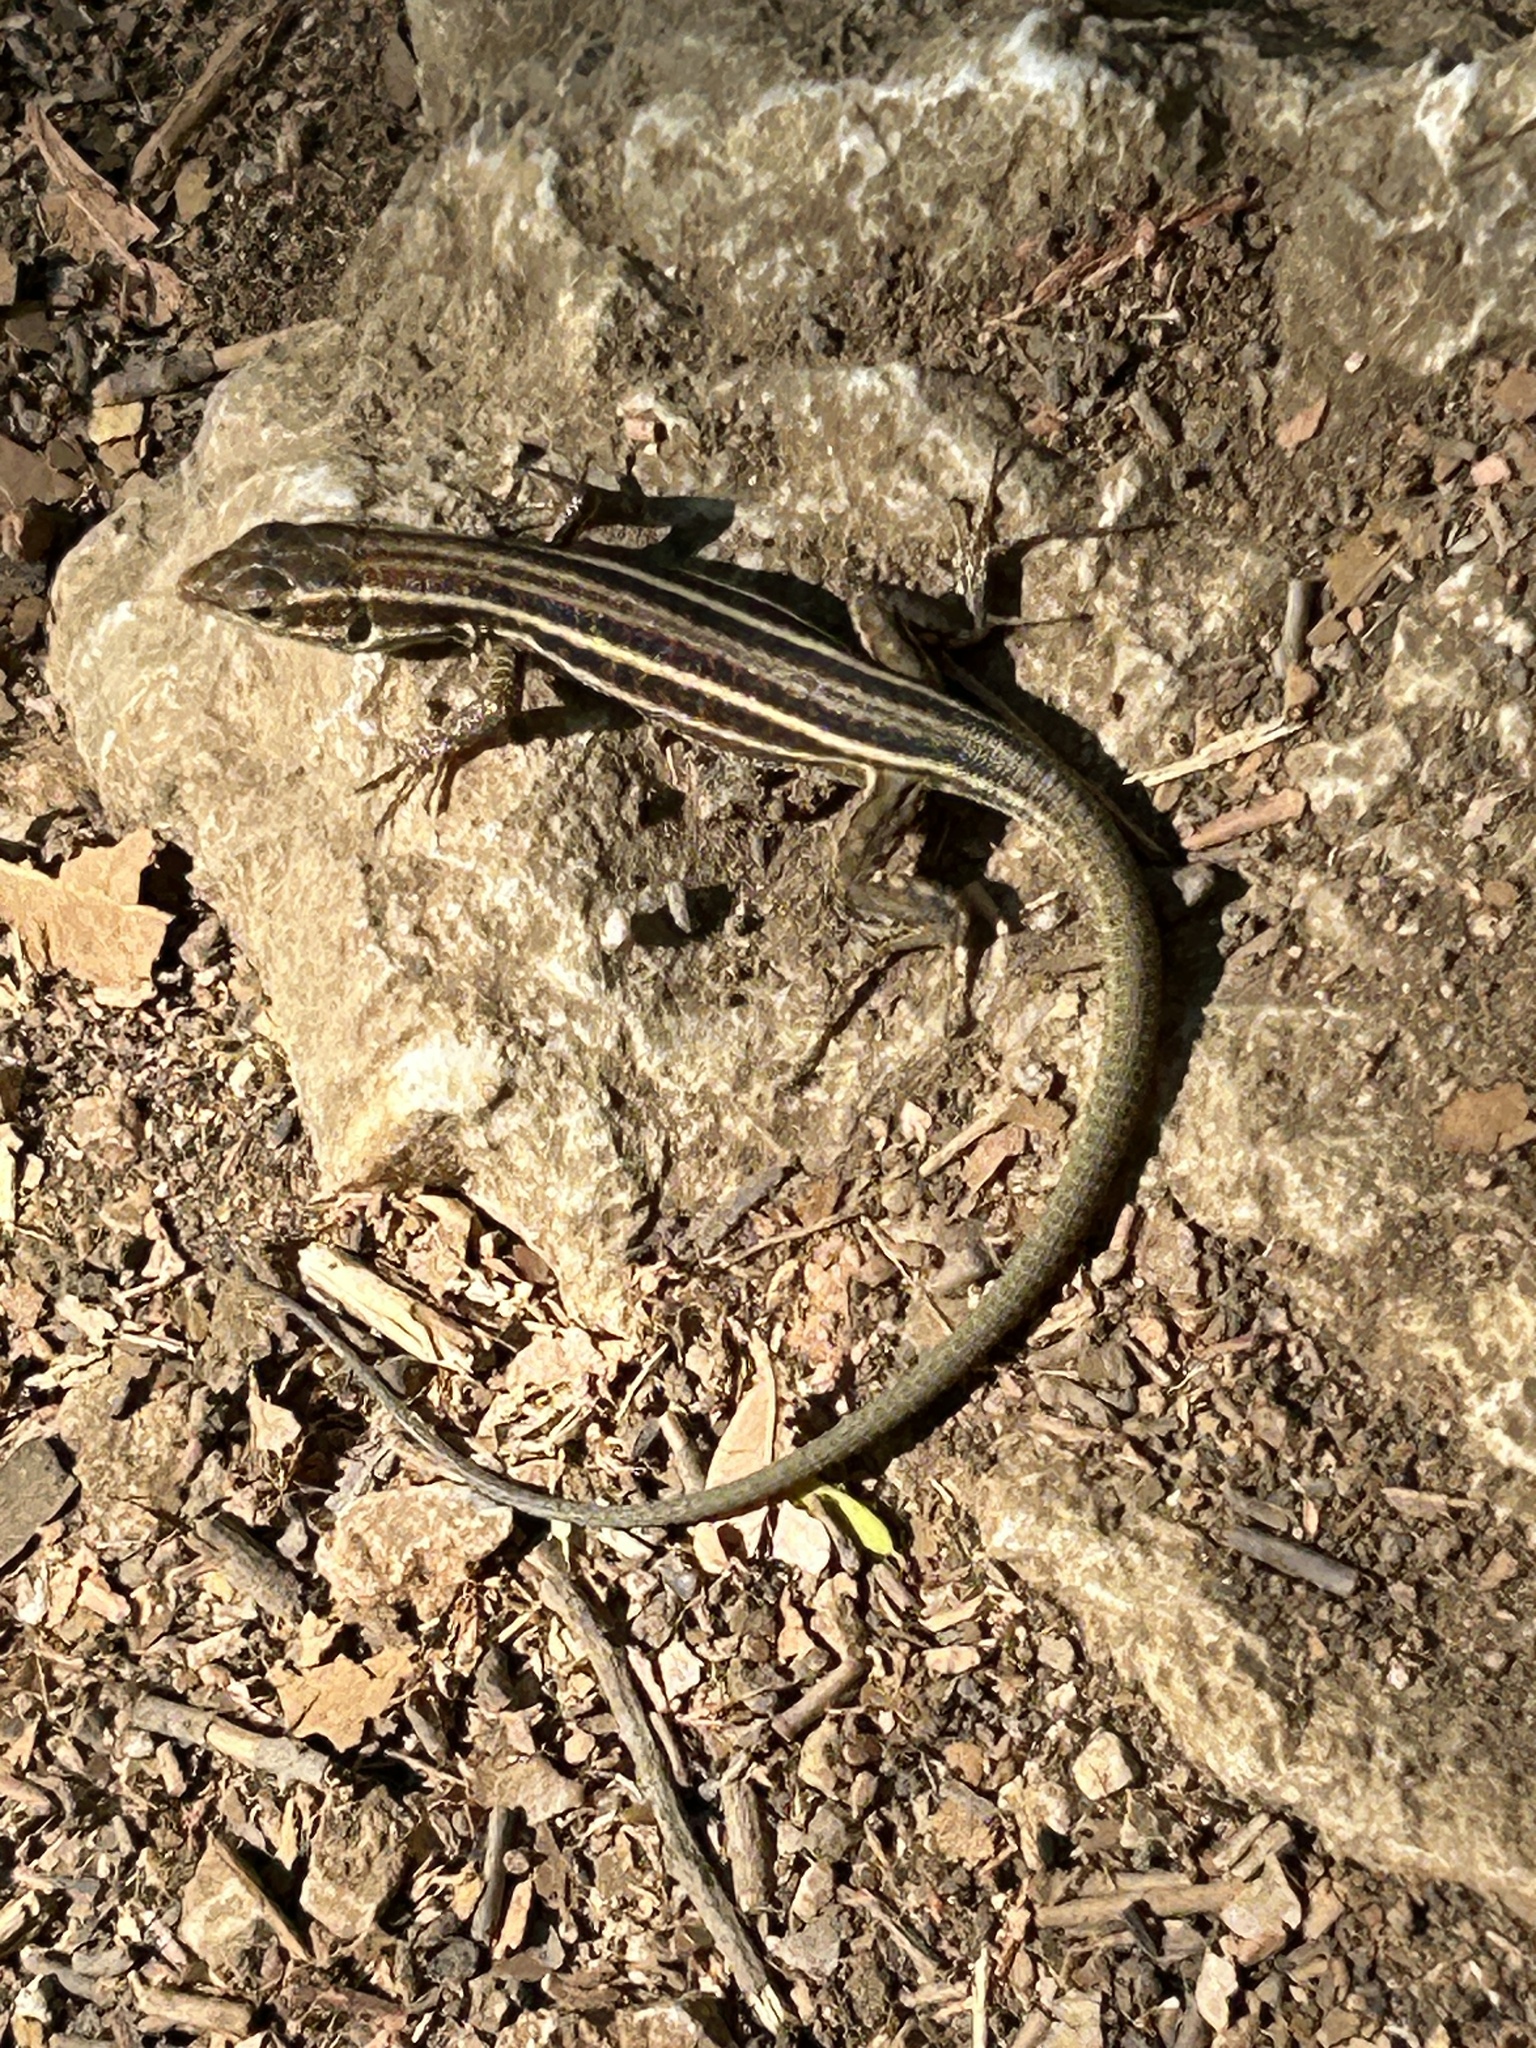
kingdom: Animalia
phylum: Chordata
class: Squamata
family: Lacertidae
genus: Podarcis
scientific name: Podarcis peloponnesiacus
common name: Peloponnese wall lizard
